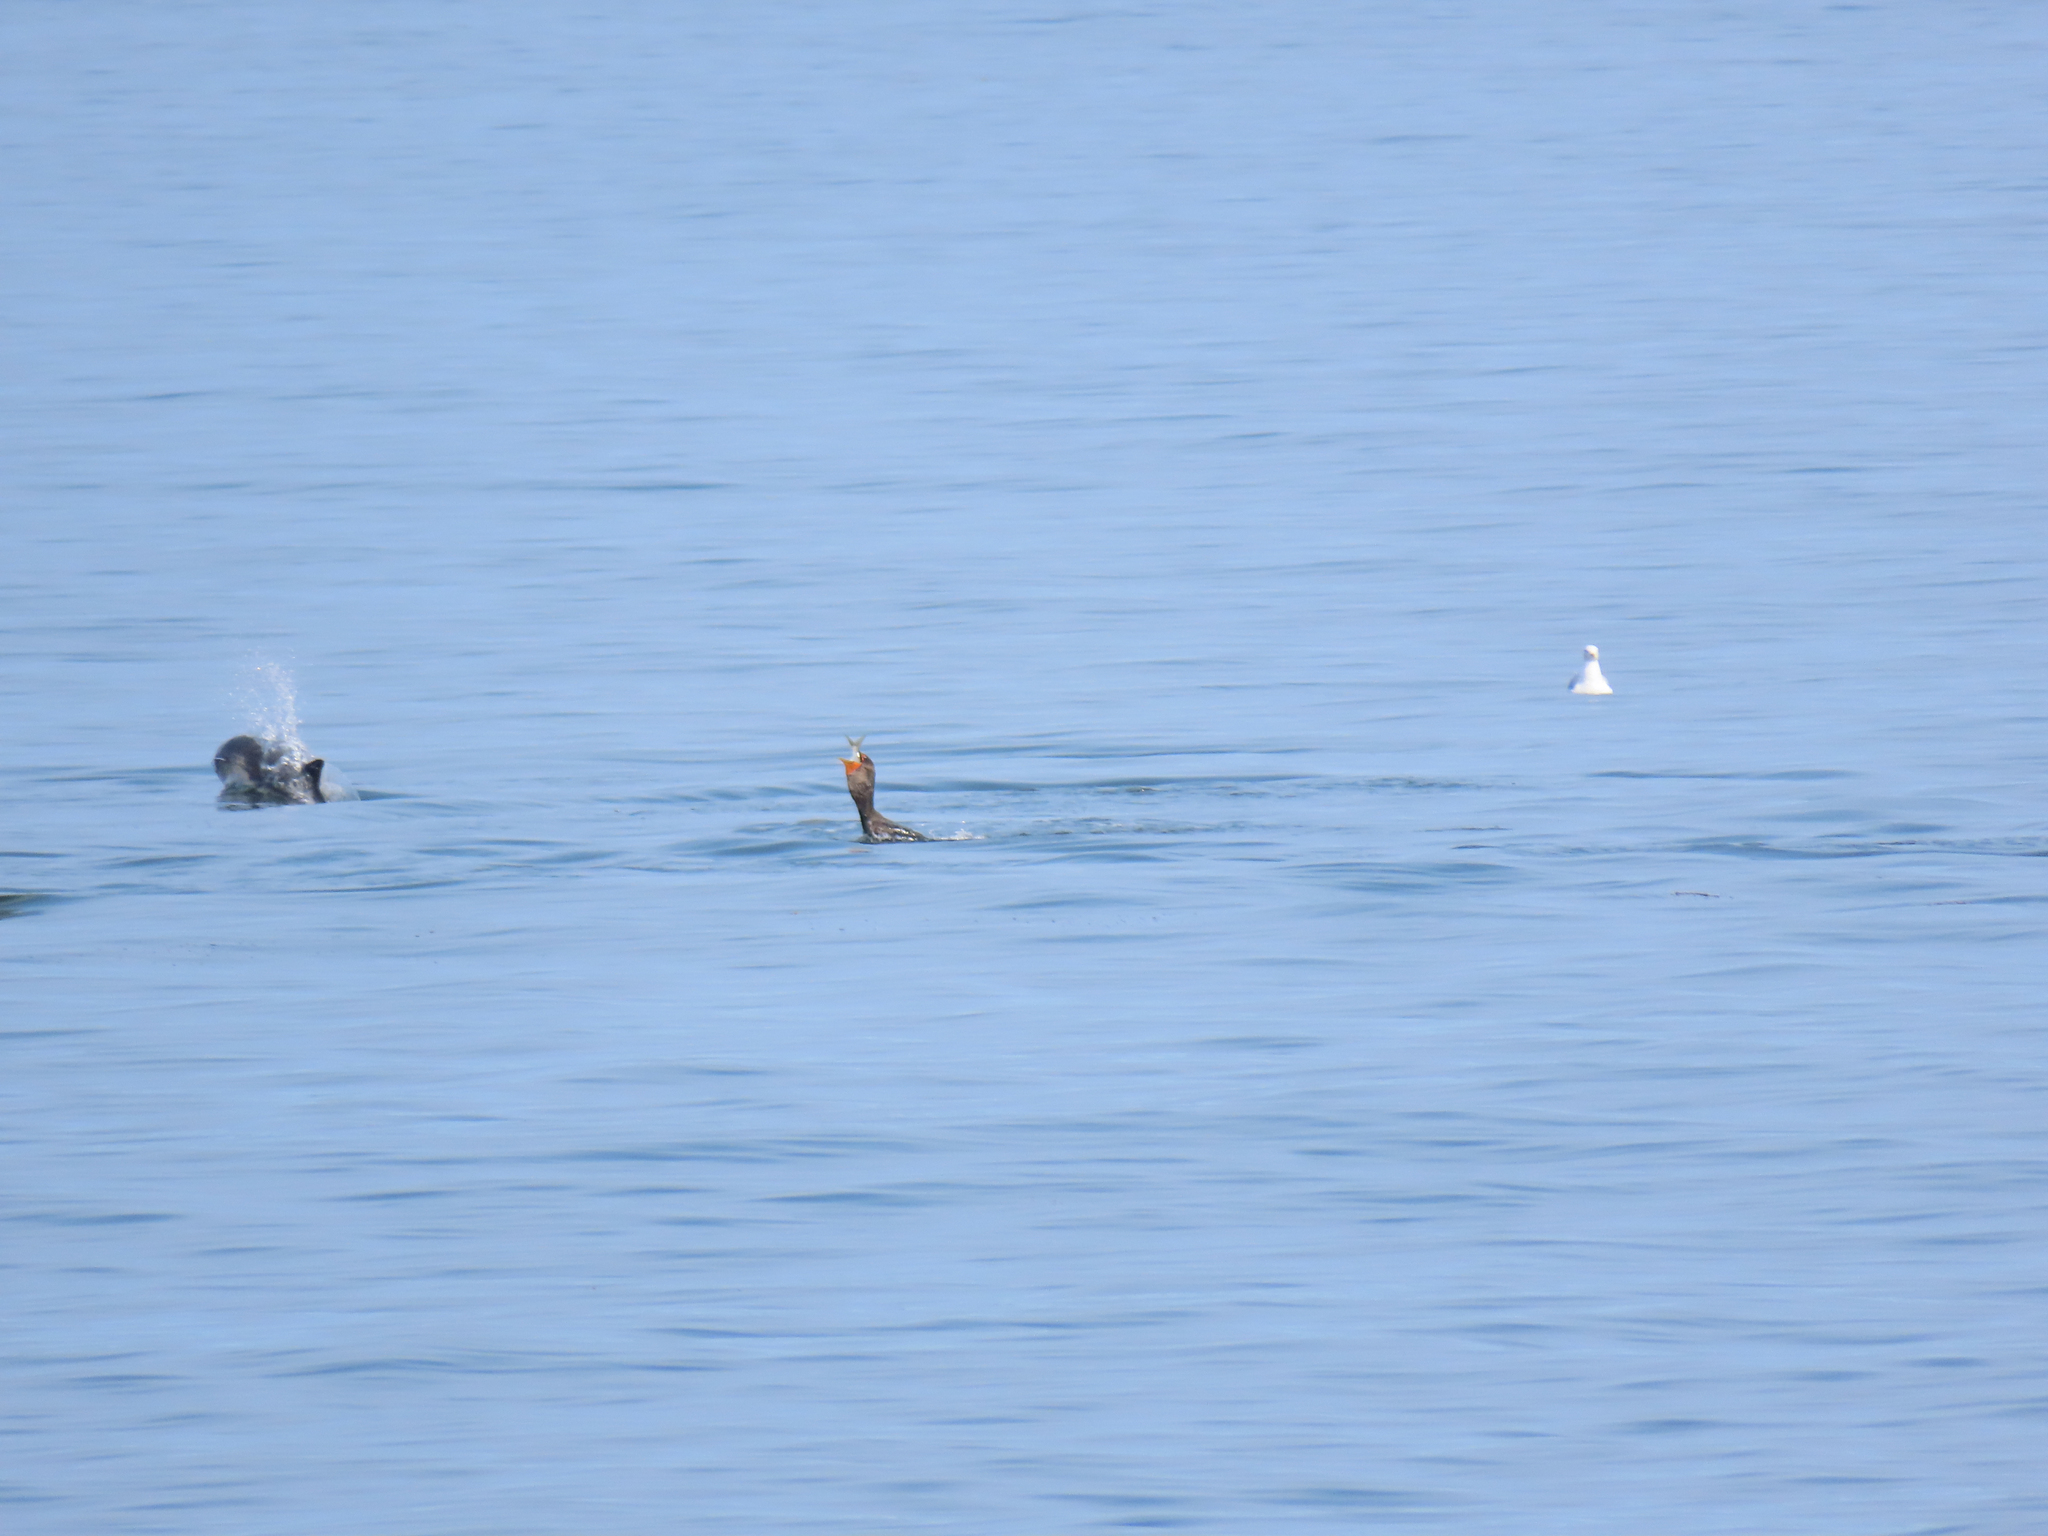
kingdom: Animalia
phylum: Chordata
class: Mammalia
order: Cetacea
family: Phocoenidae
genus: Phocoena
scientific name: Phocoena phocoena
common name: Harbor porpoise
